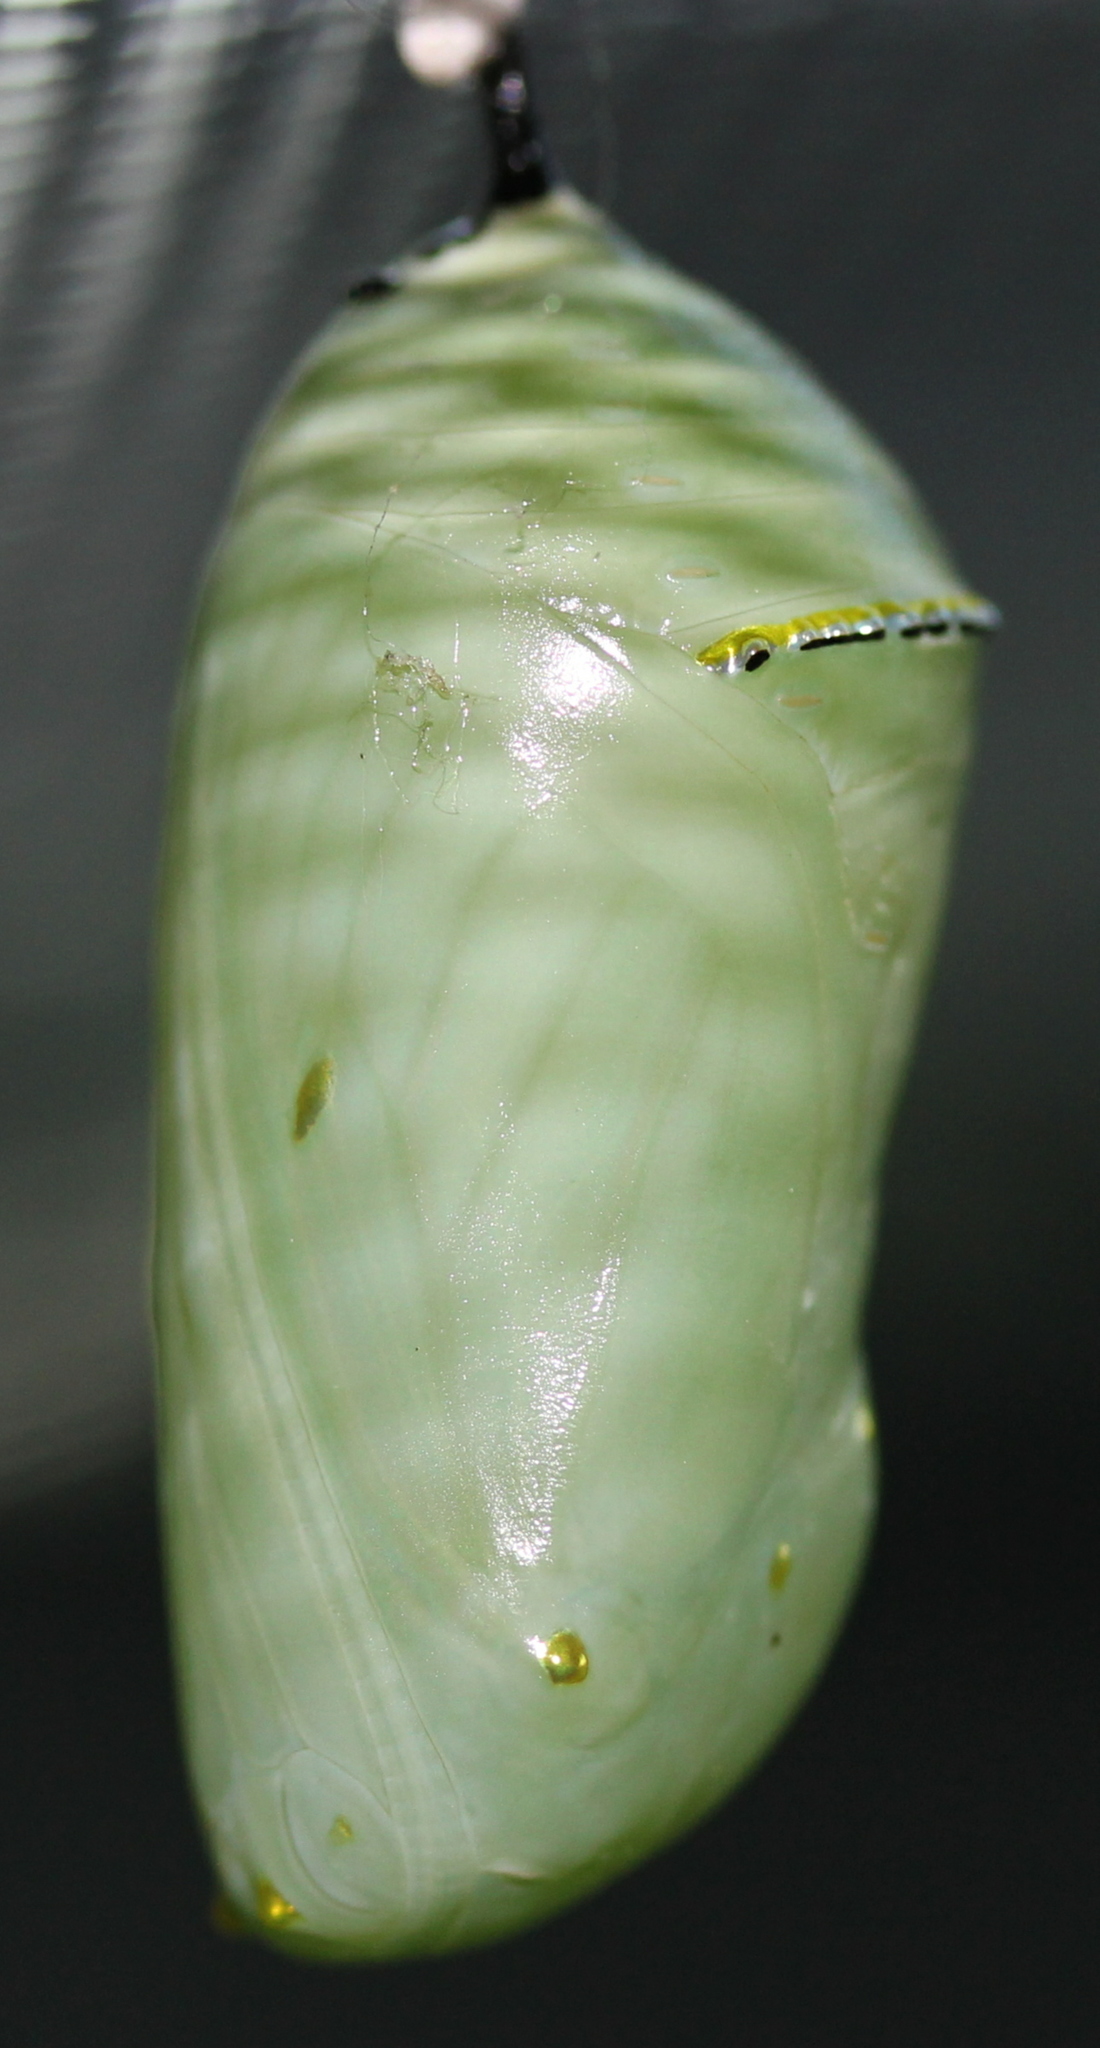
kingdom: Animalia
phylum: Arthropoda
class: Insecta
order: Lepidoptera
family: Nymphalidae
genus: Danaus
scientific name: Danaus plexippus
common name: Monarch
